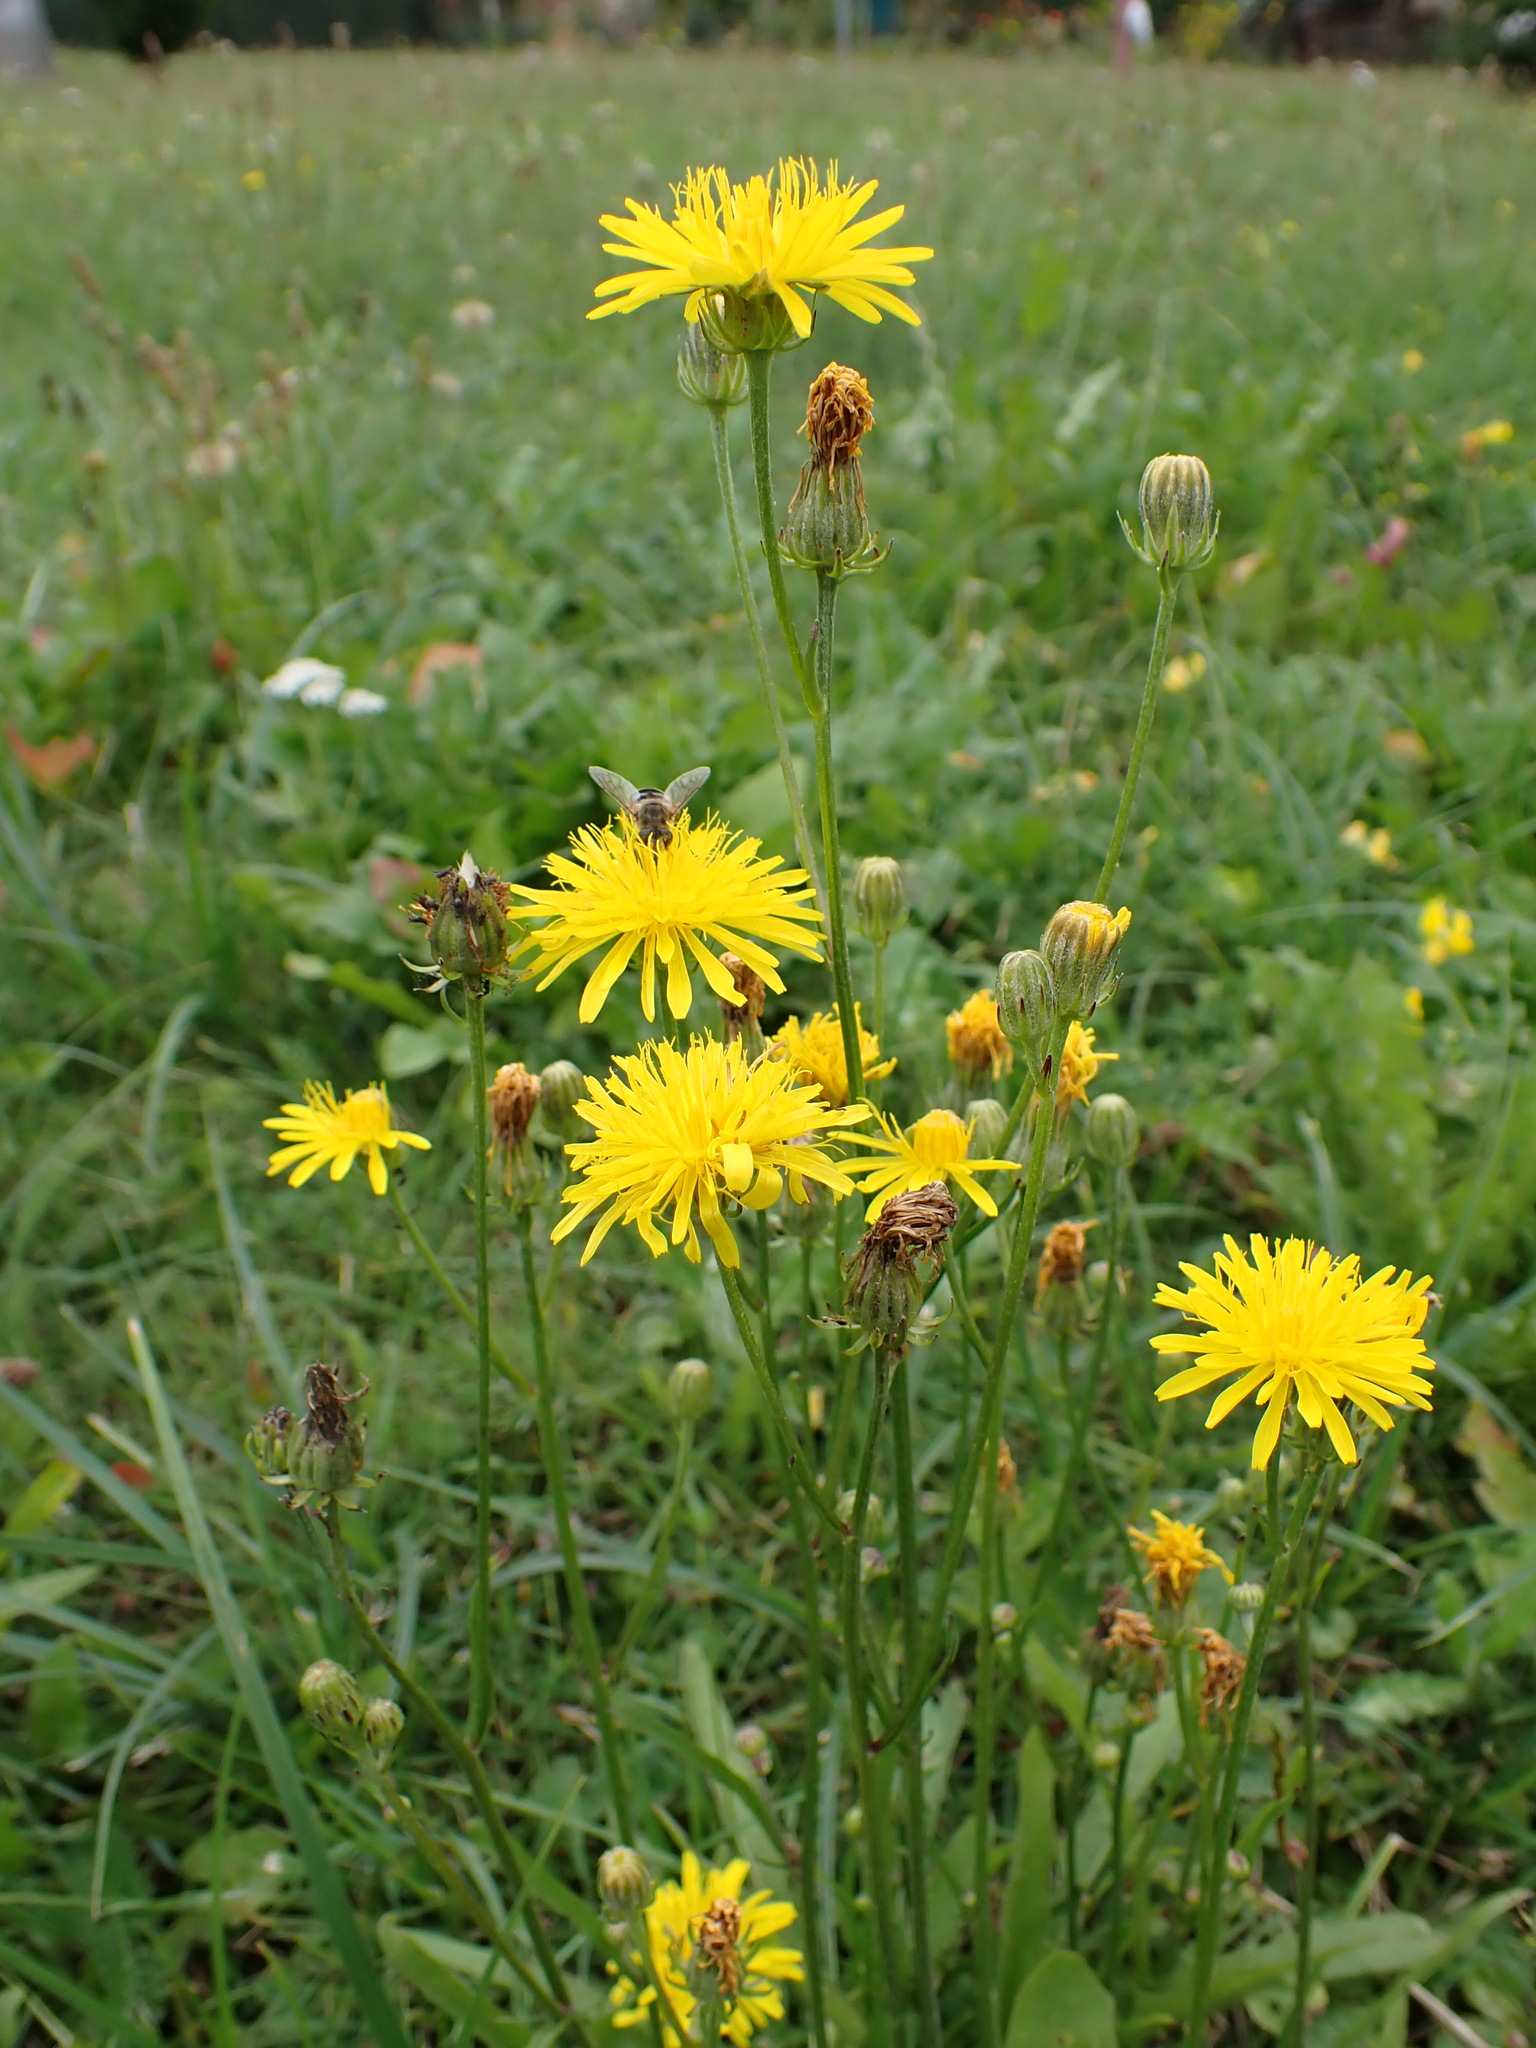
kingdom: Plantae
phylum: Tracheophyta
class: Magnoliopsida
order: Asterales
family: Asteraceae
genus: Crepis
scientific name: Crepis biennis
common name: Rough hawk's-beard
